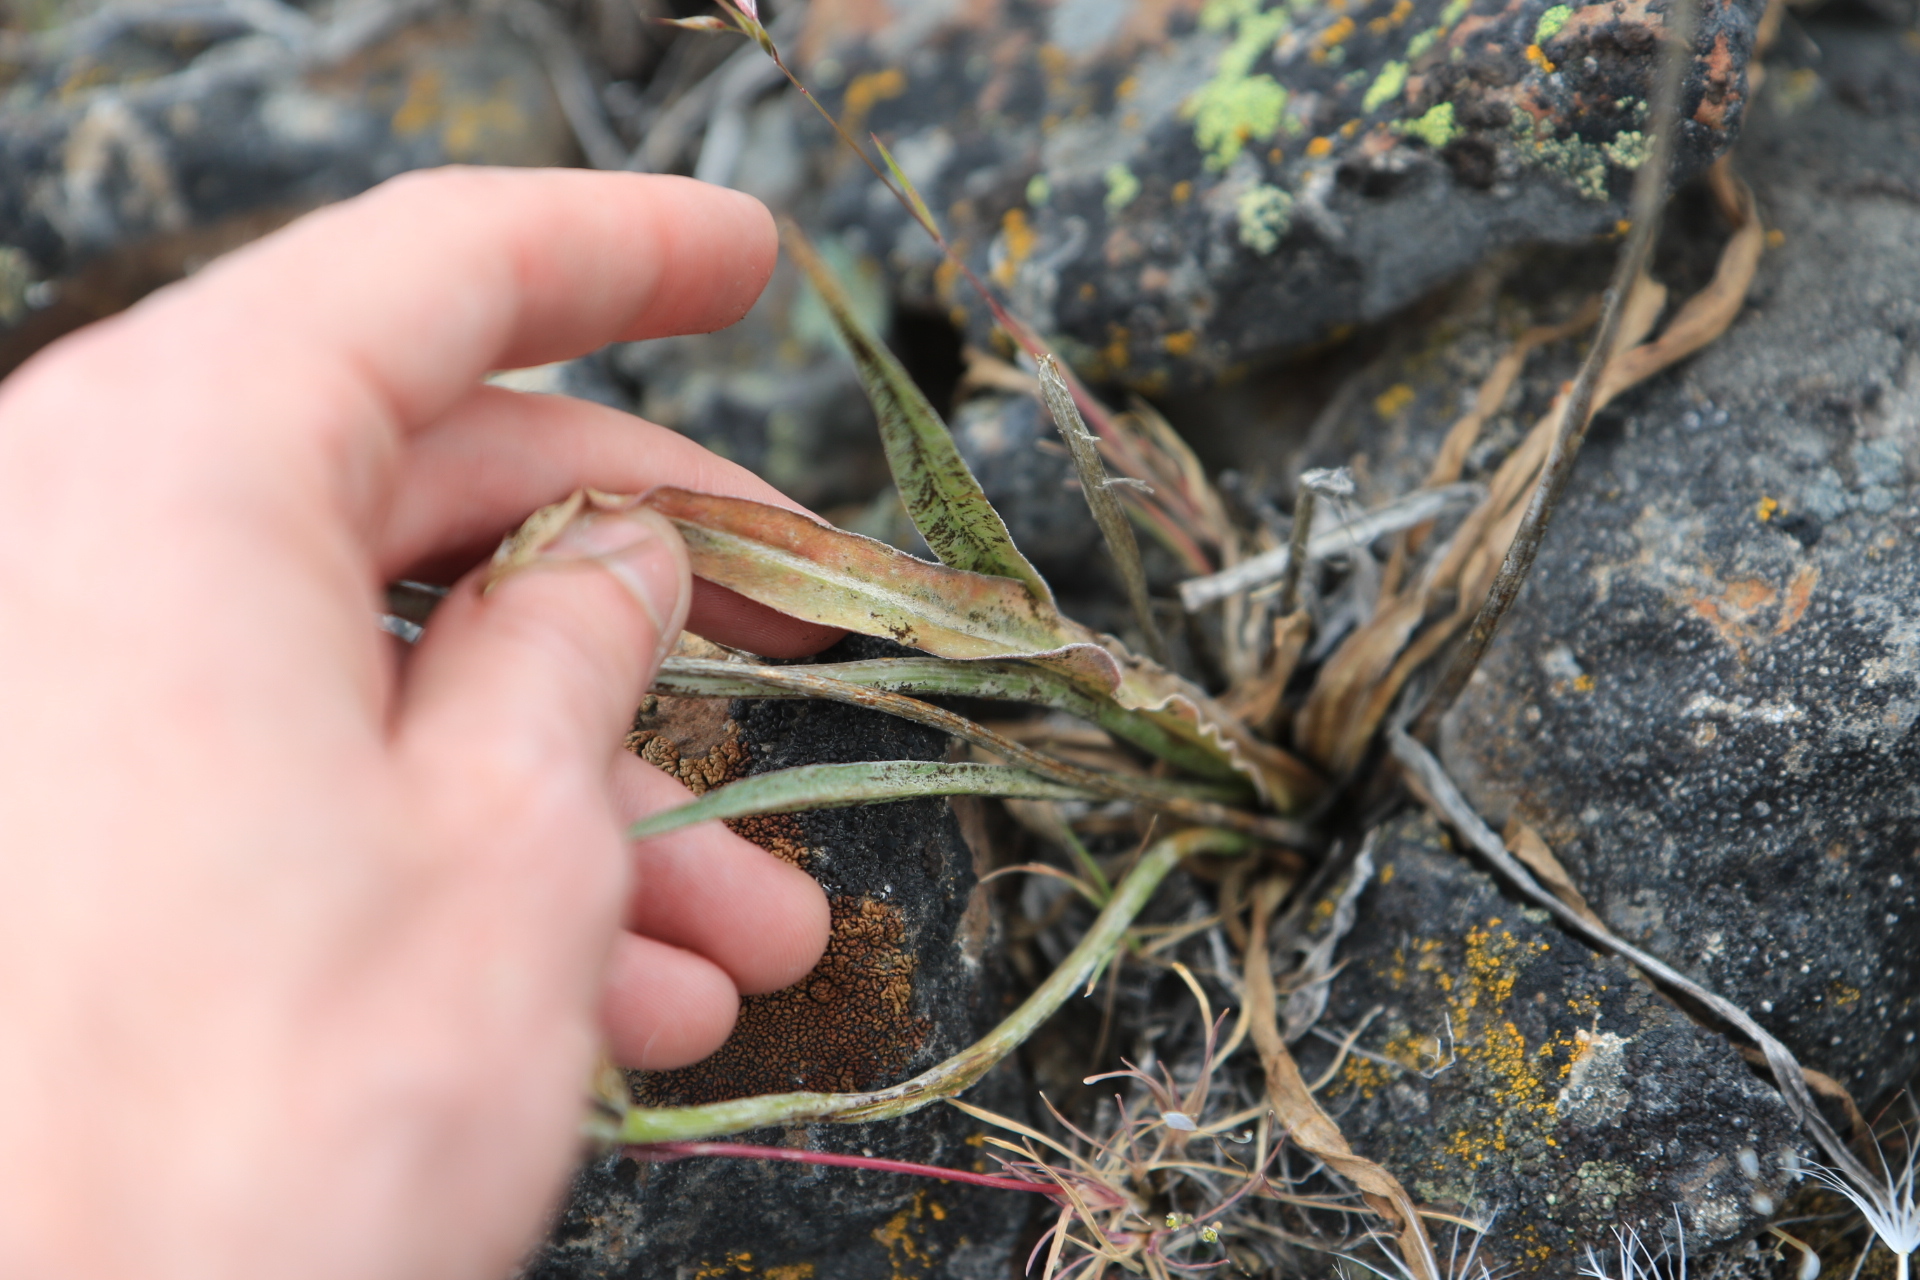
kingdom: Plantae
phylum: Tracheophyta
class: Magnoliopsida
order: Asterales
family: Asteraceae
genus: Microseris
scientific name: Microseris troximoides
